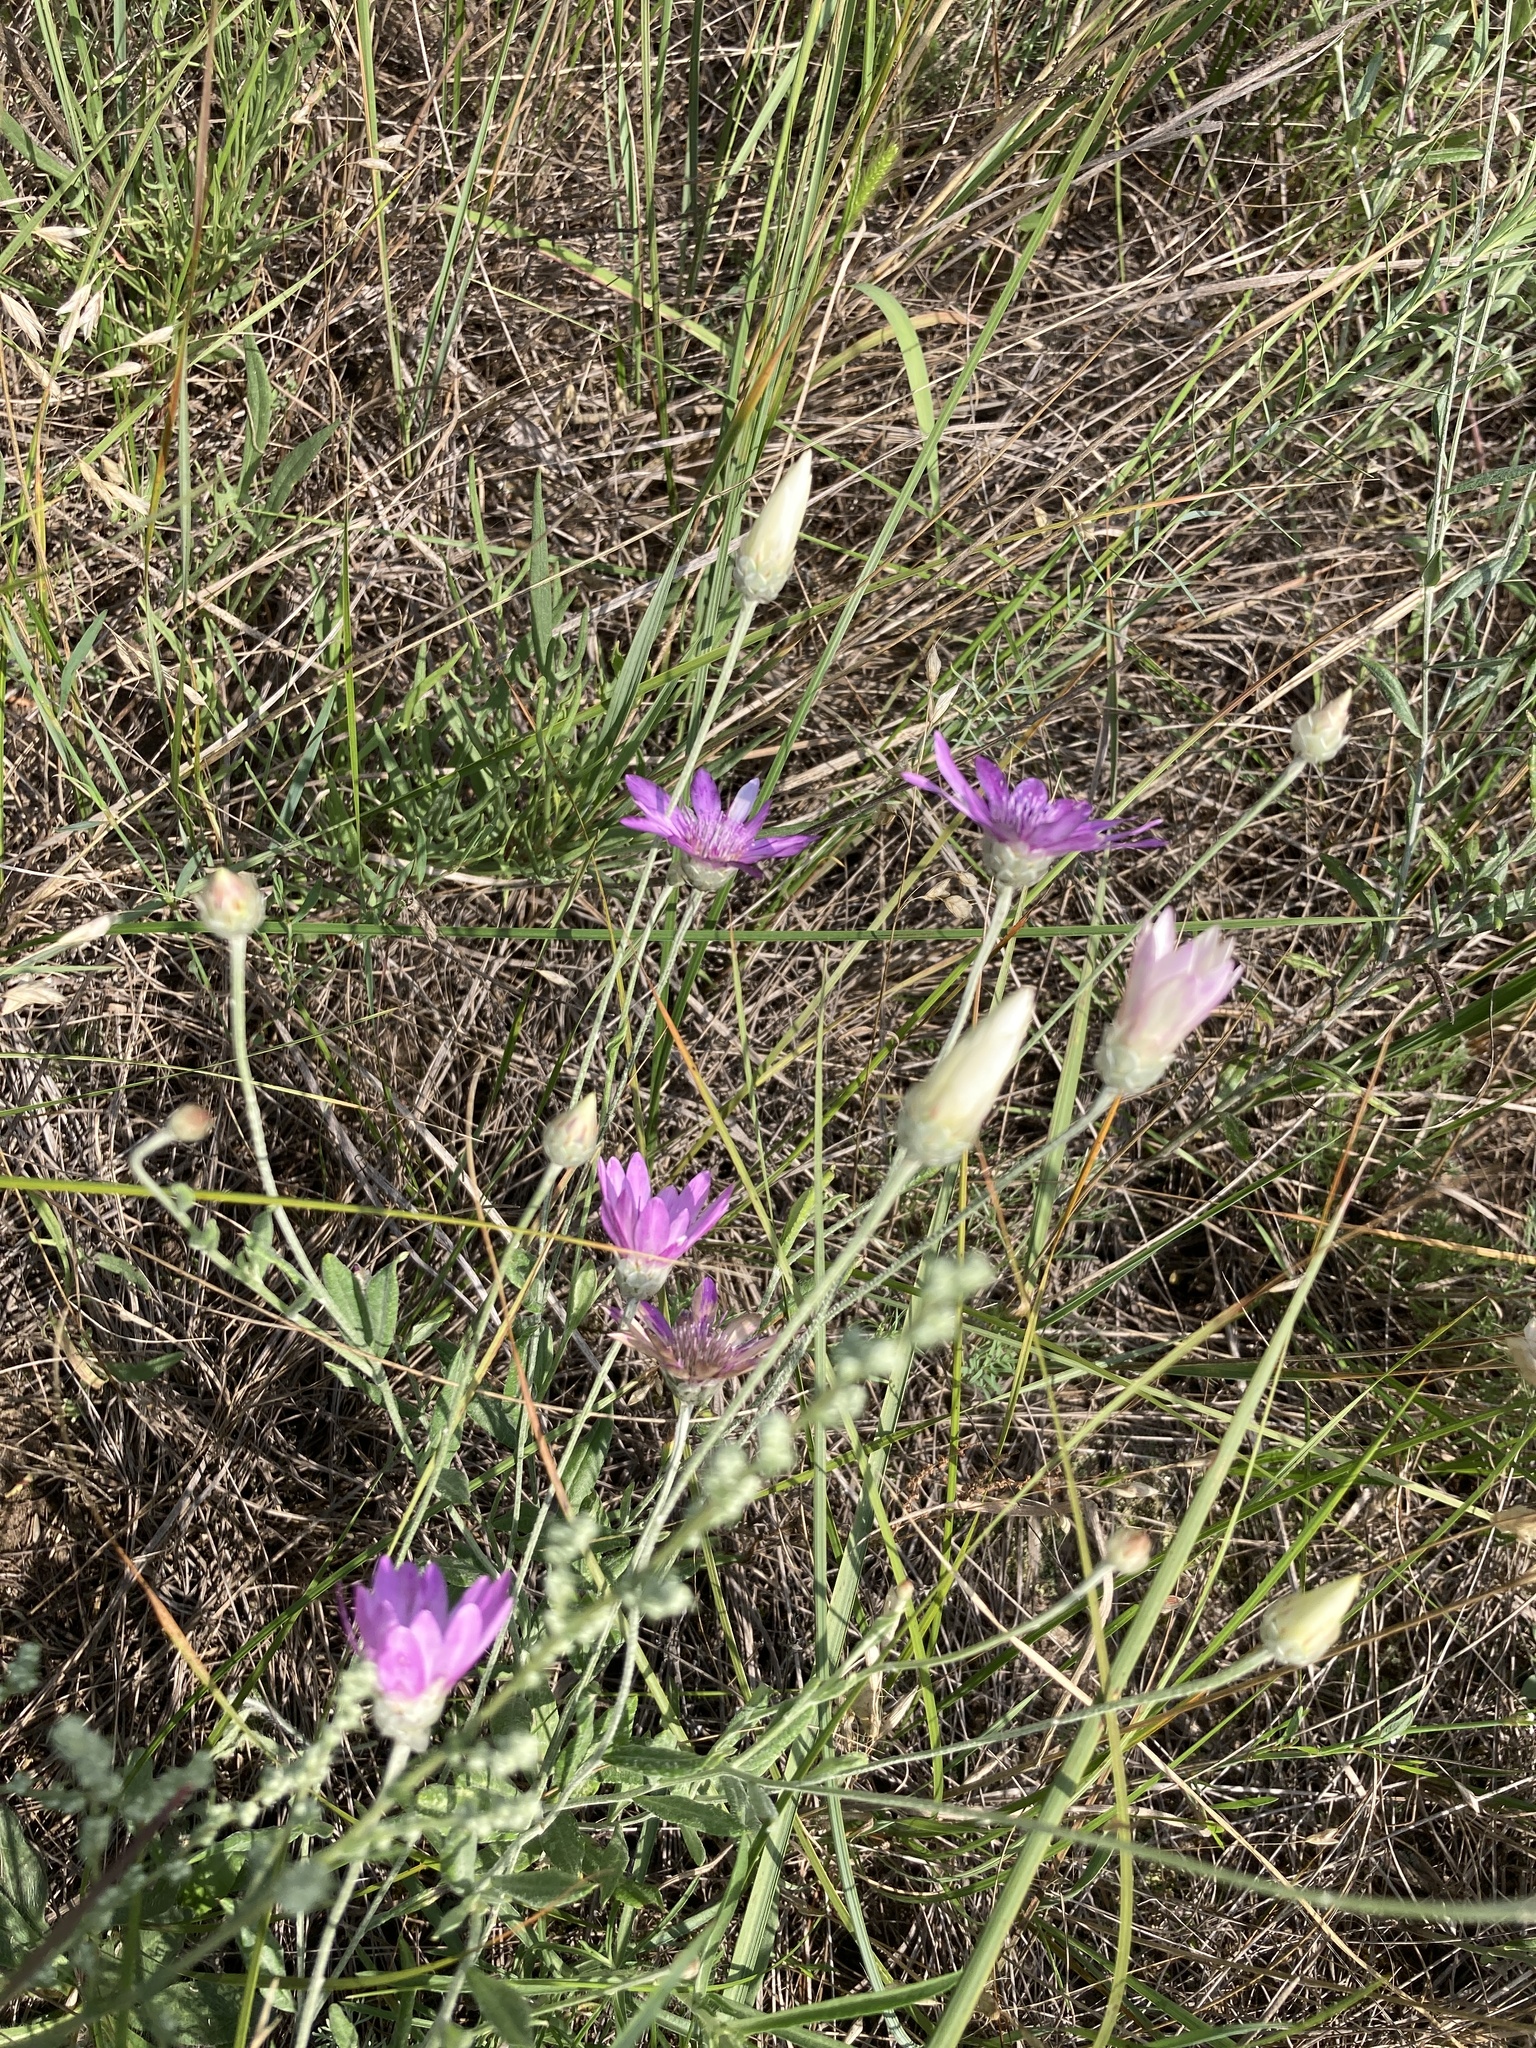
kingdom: Plantae
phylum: Tracheophyta
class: Magnoliopsida
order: Asterales
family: Asteraceae
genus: Xeranthemum
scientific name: Xeranthemum annuum
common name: Immortelle
